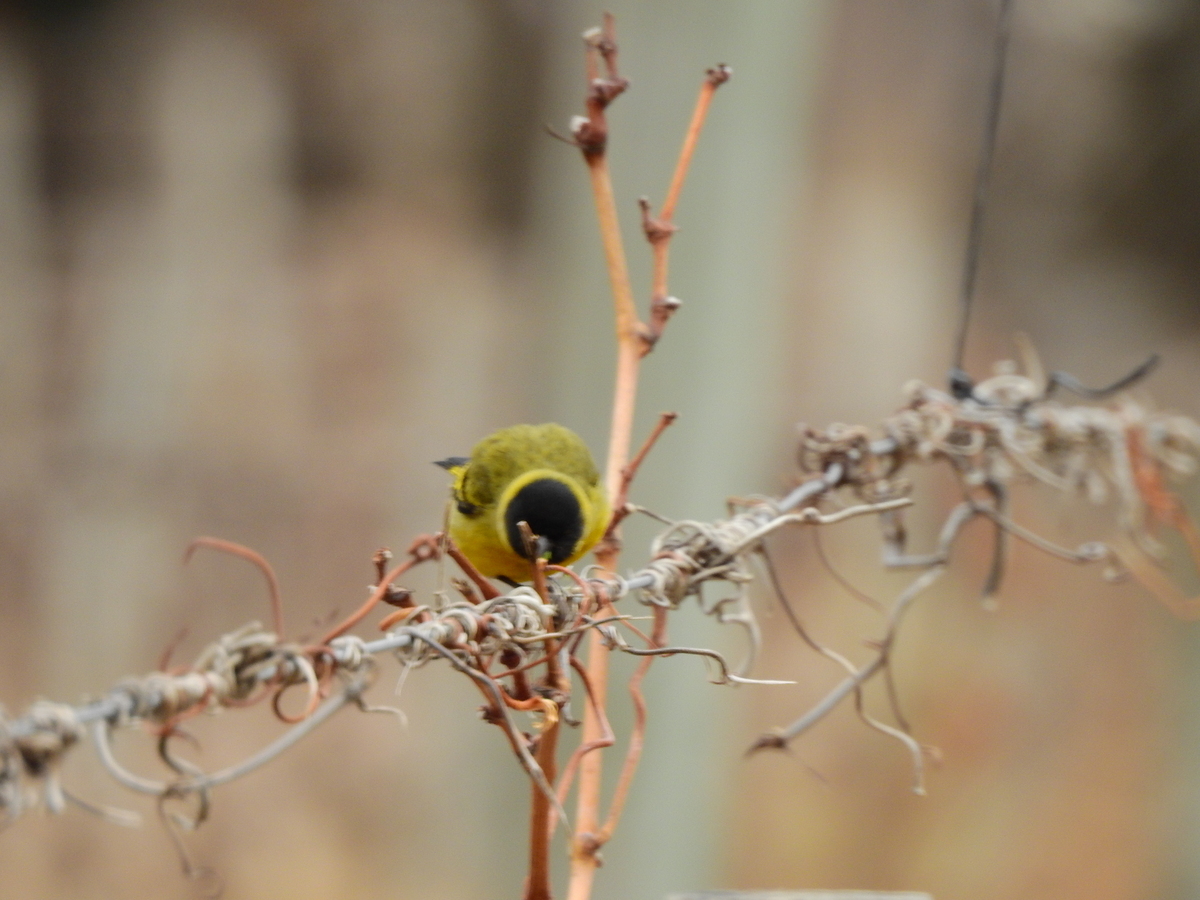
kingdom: Animalia
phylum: Chordata
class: Aves
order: Passeriformes
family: Fringillidae
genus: Spinus
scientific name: Spinus magellanicus
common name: Hooded siskin
